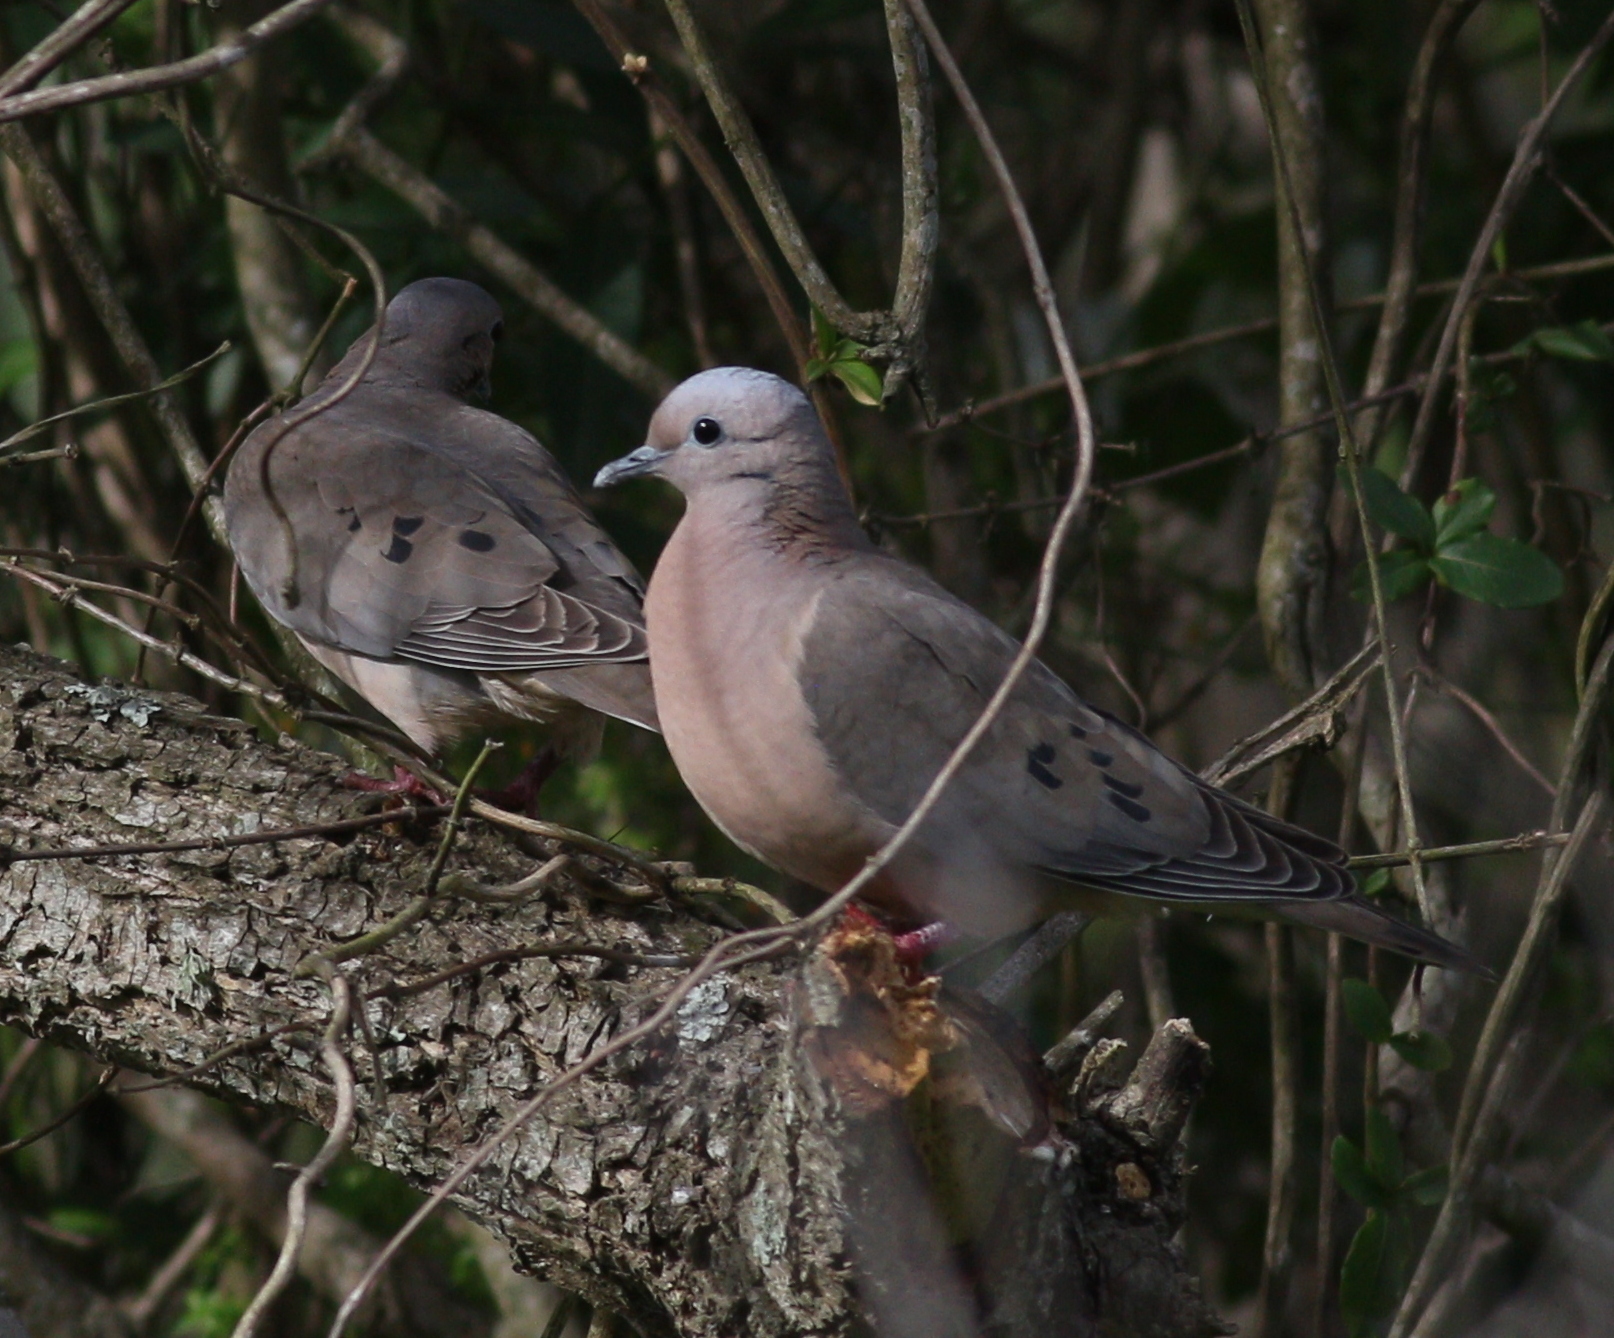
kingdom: Animalia
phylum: Chordata
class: Aves
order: Columbiformes
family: Columbidae
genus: Zenaida
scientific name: Zenaida auriculata
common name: Eared dove
